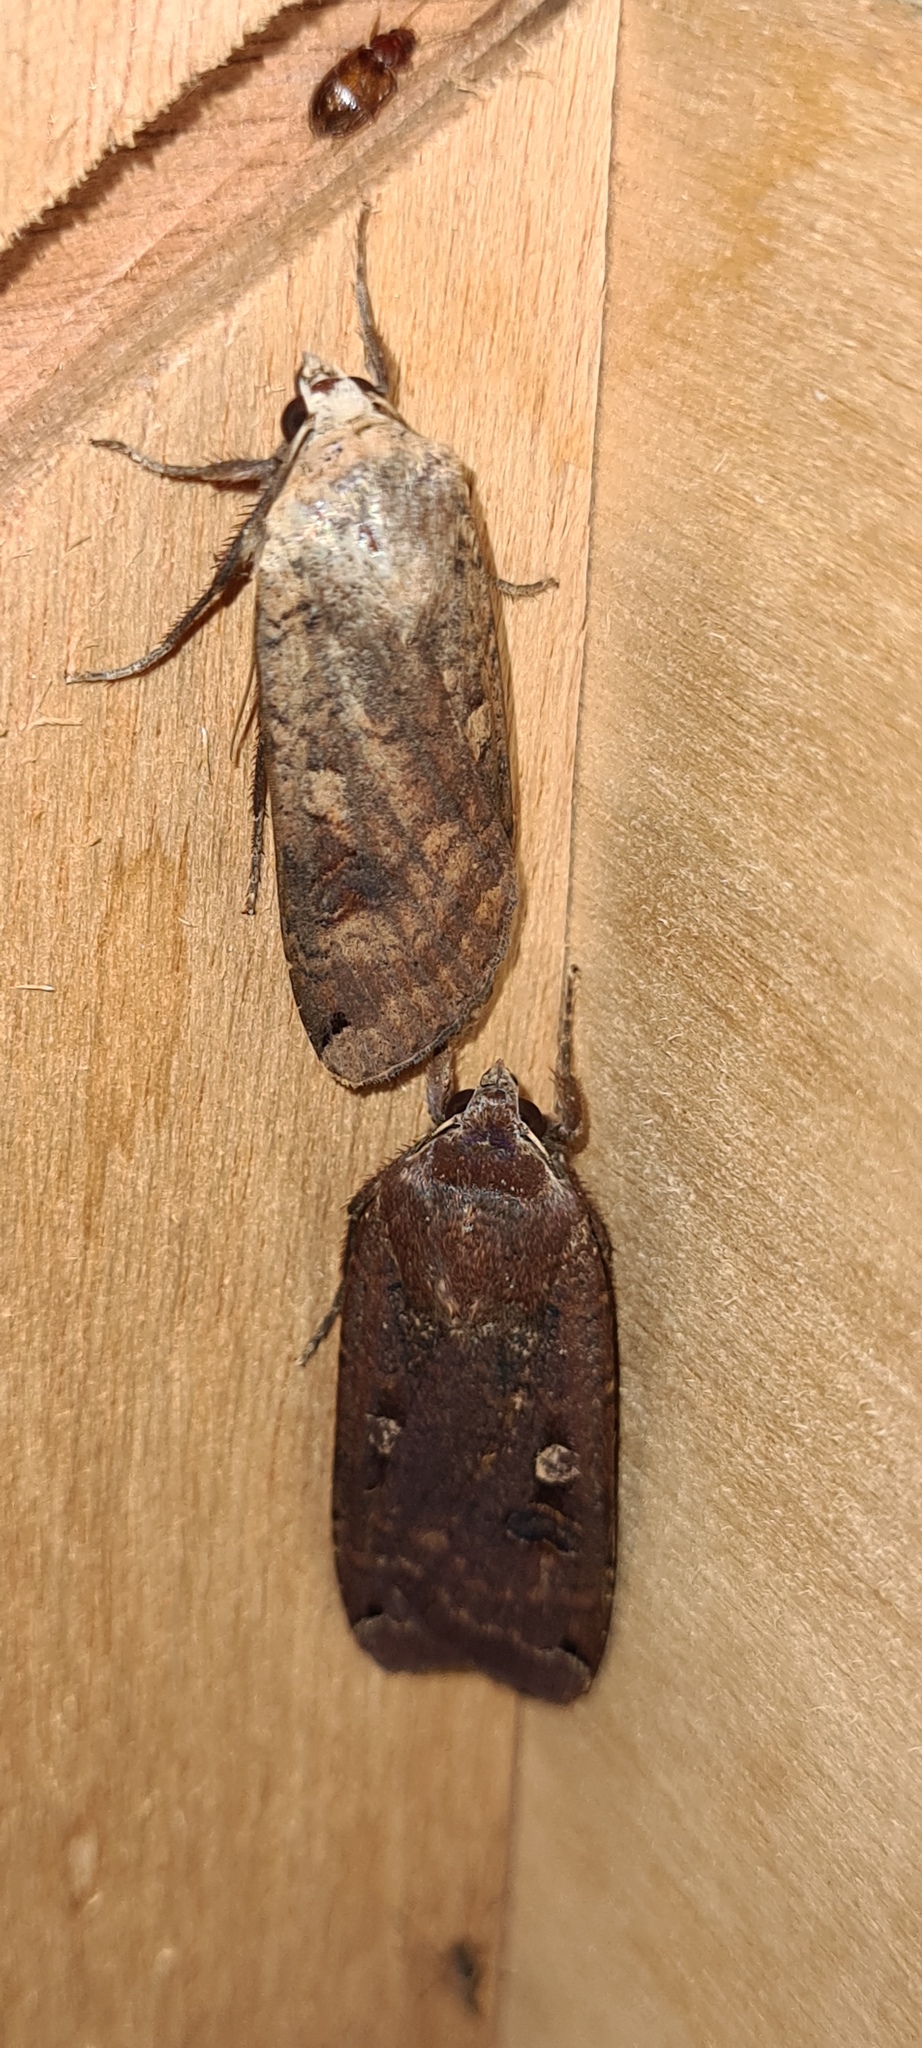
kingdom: Animalia
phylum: Arthropoda
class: Insecta
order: Lepidoptera
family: Noctuidae
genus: Noctua
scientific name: Noctua pronuba
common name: Large yellow underwing
